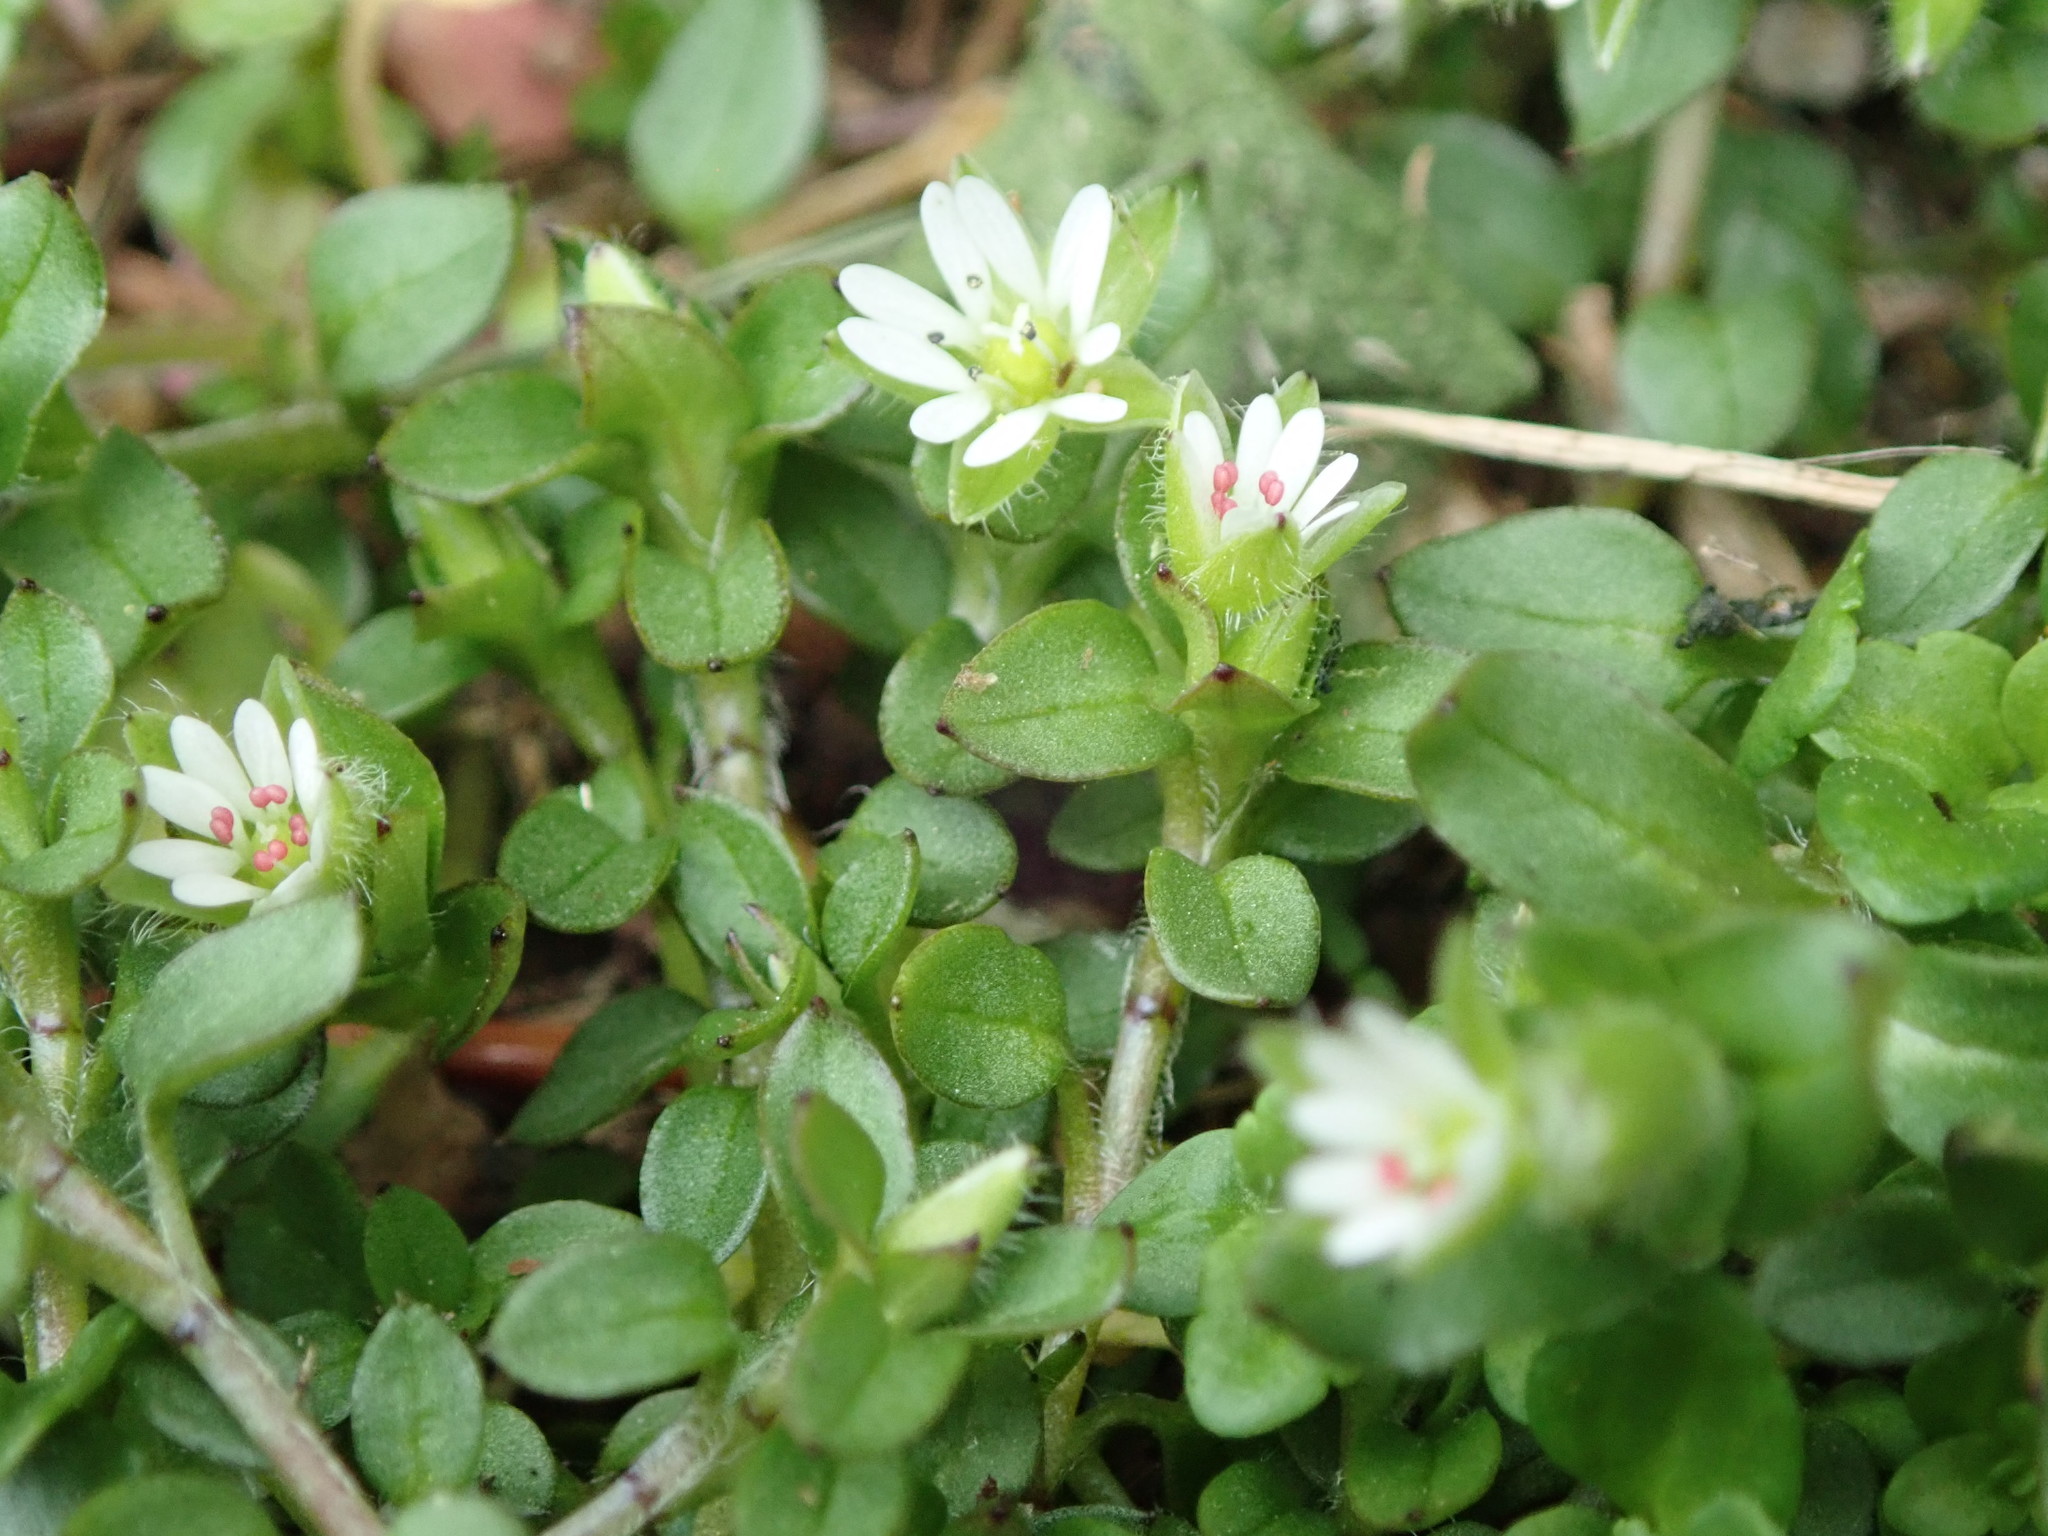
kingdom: Plantae
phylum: Tracheophyta
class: Magnoliopsida
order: Caryophyllales
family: Caryophyllaceae
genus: Stellaria
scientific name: Stellaria media
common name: Common chickweed
